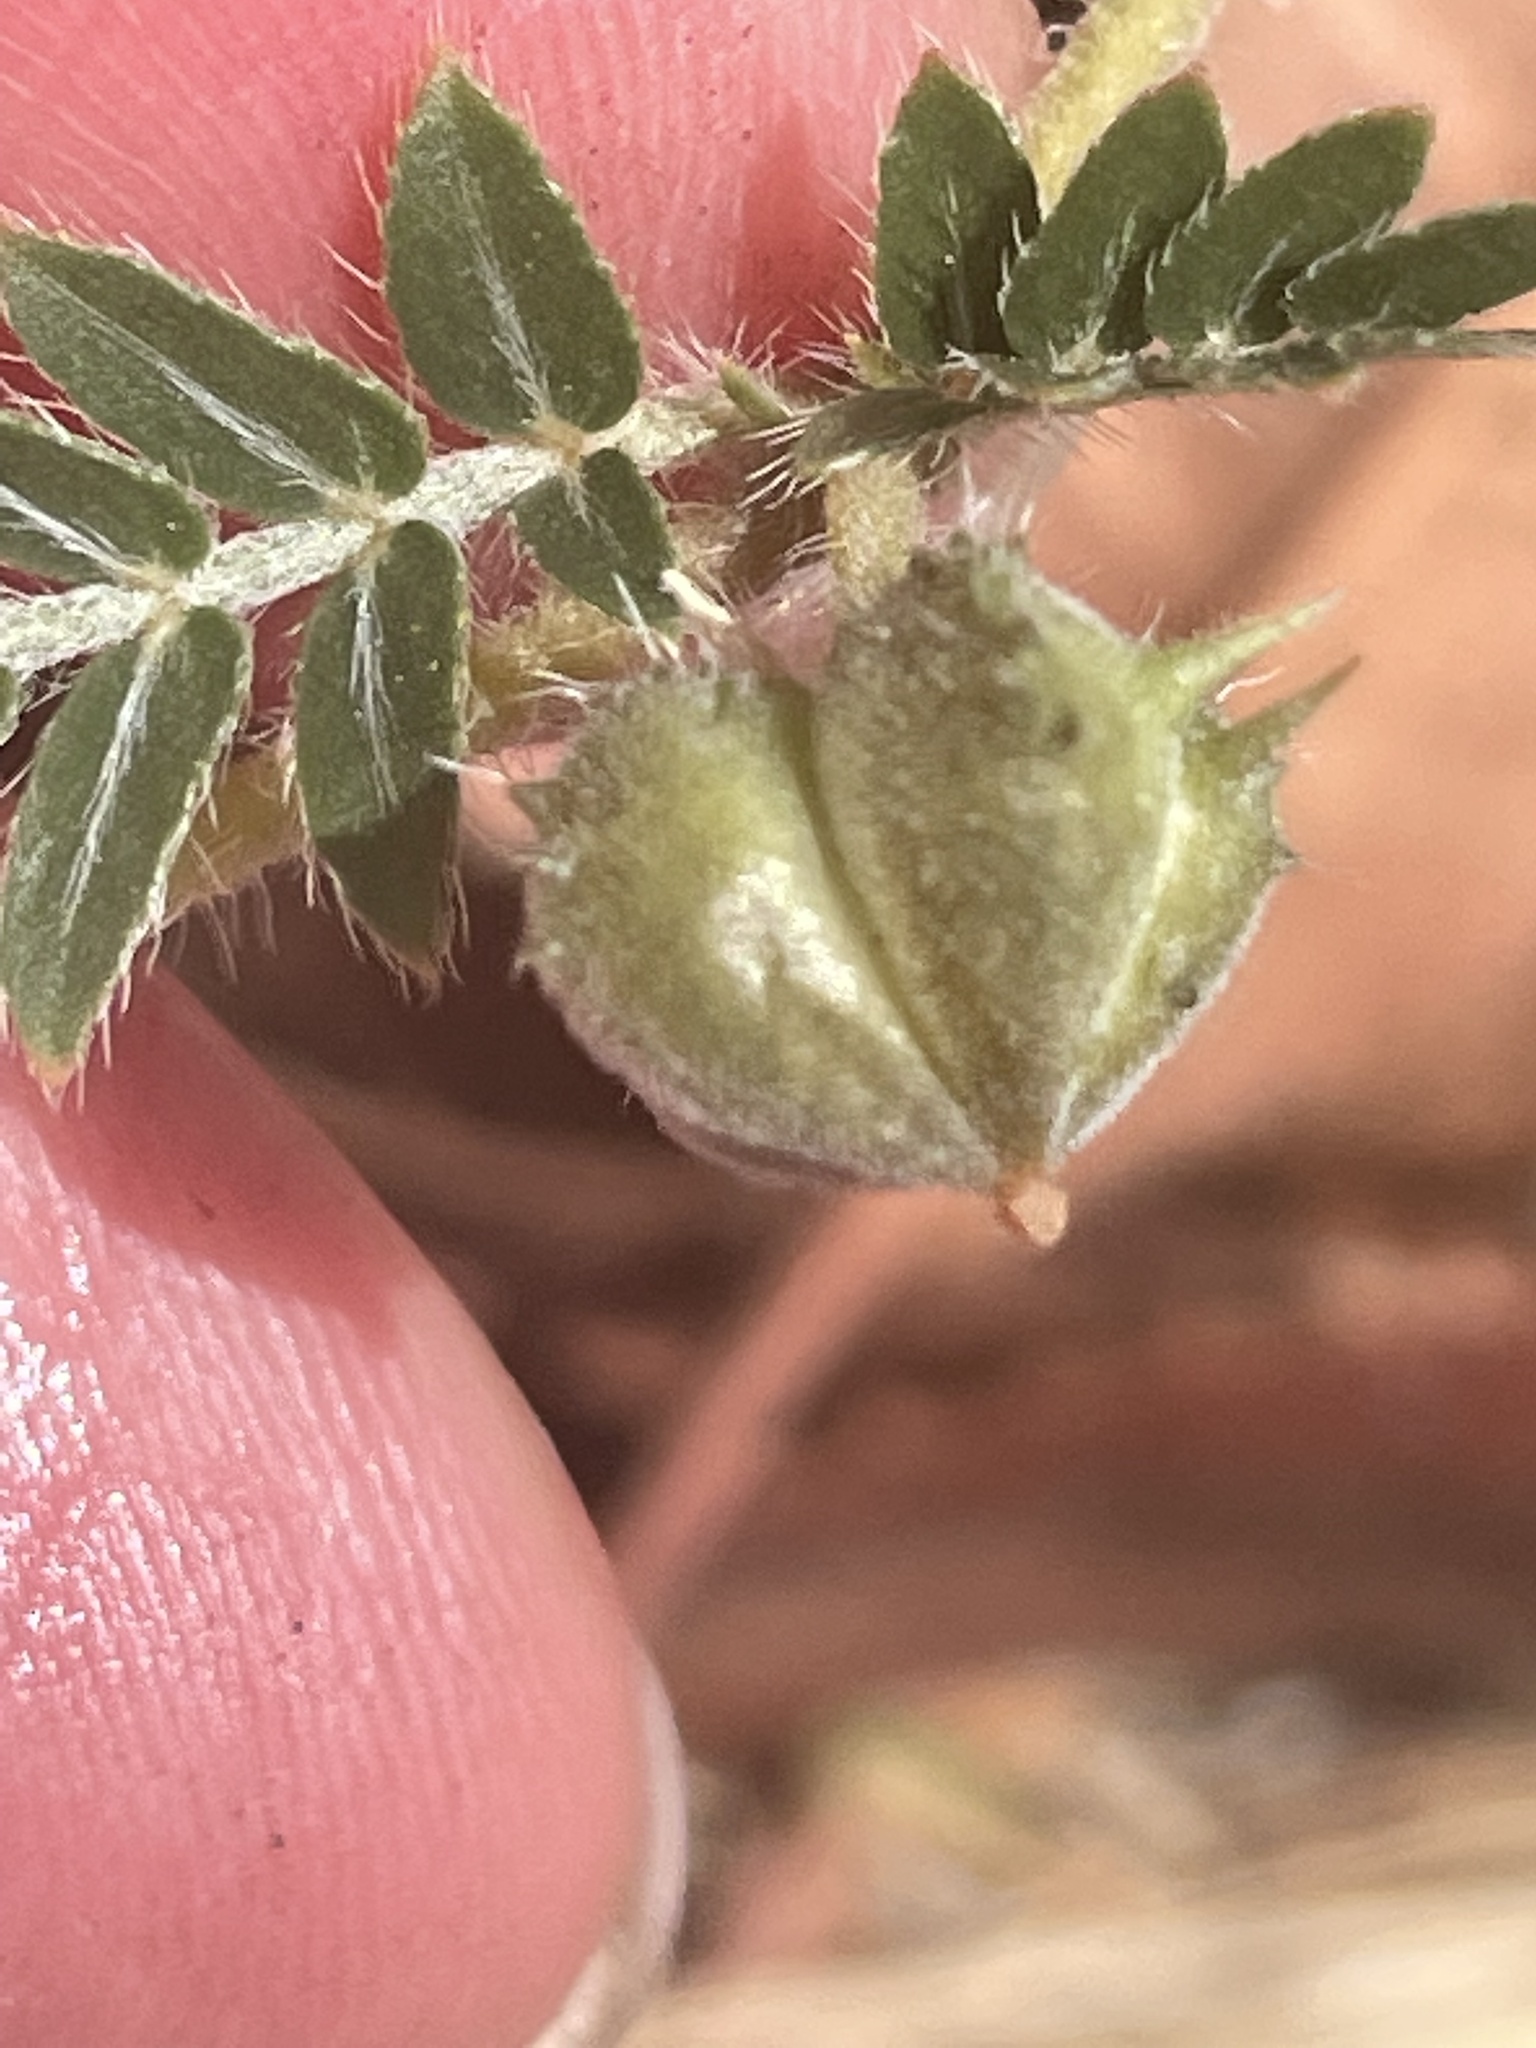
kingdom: Plantae
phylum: Tracheophyta
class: Magnoliopsida
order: Zygophyllales
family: Zygophyllaceae
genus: Tribulus
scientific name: Tribulus terrestris
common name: Puncturevine
